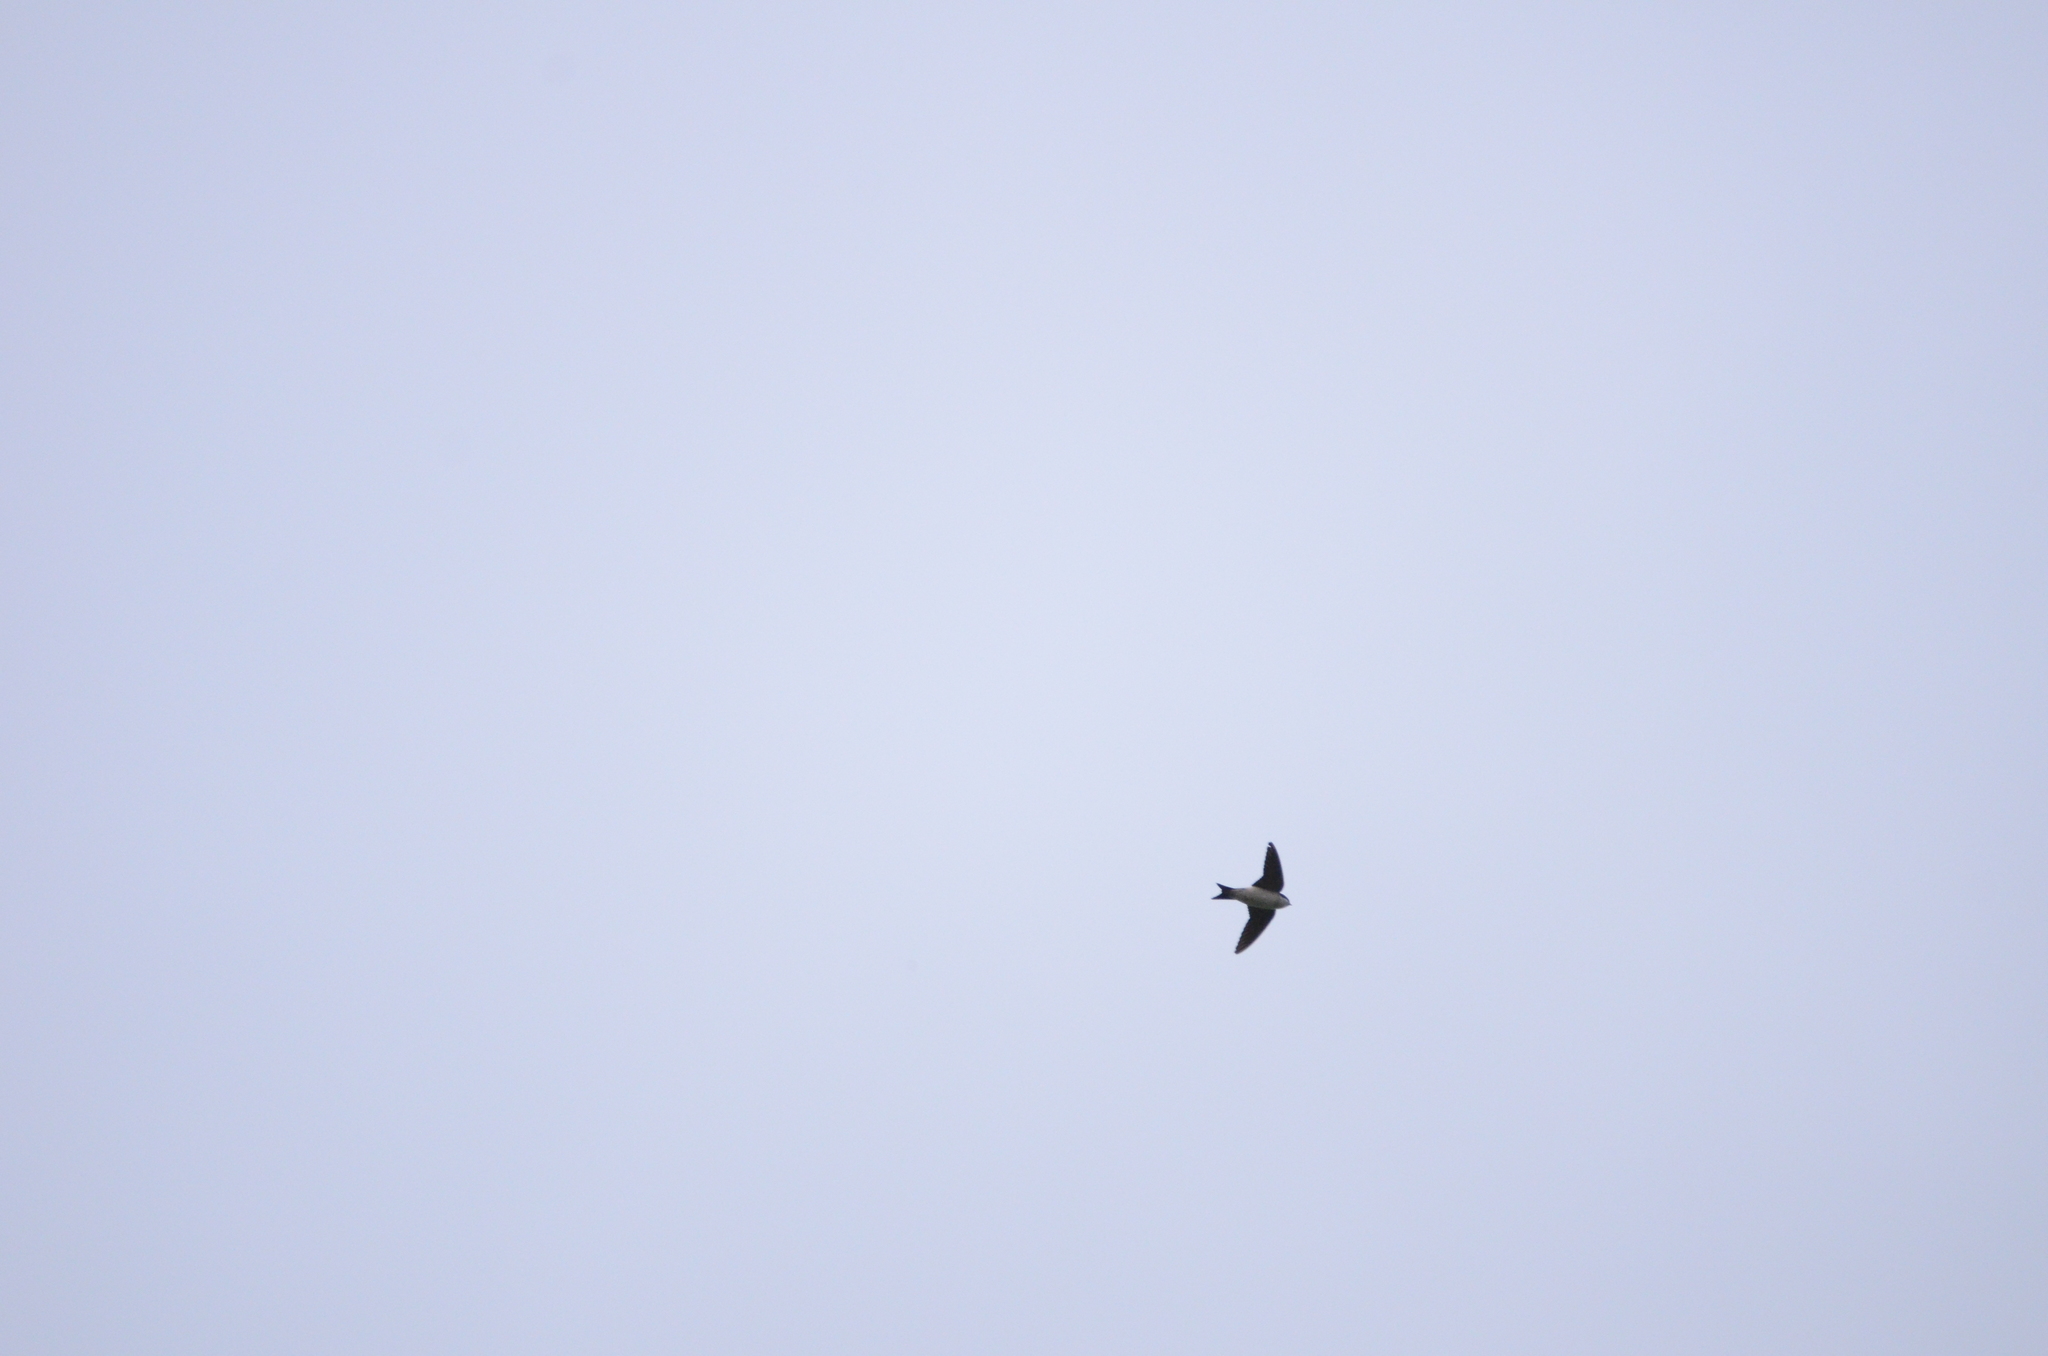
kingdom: Animalia
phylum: Chordata
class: Aves
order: Passeriformes
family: Hirundinidae
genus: Delichon
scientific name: Delichon urbicum
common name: Common house martin
